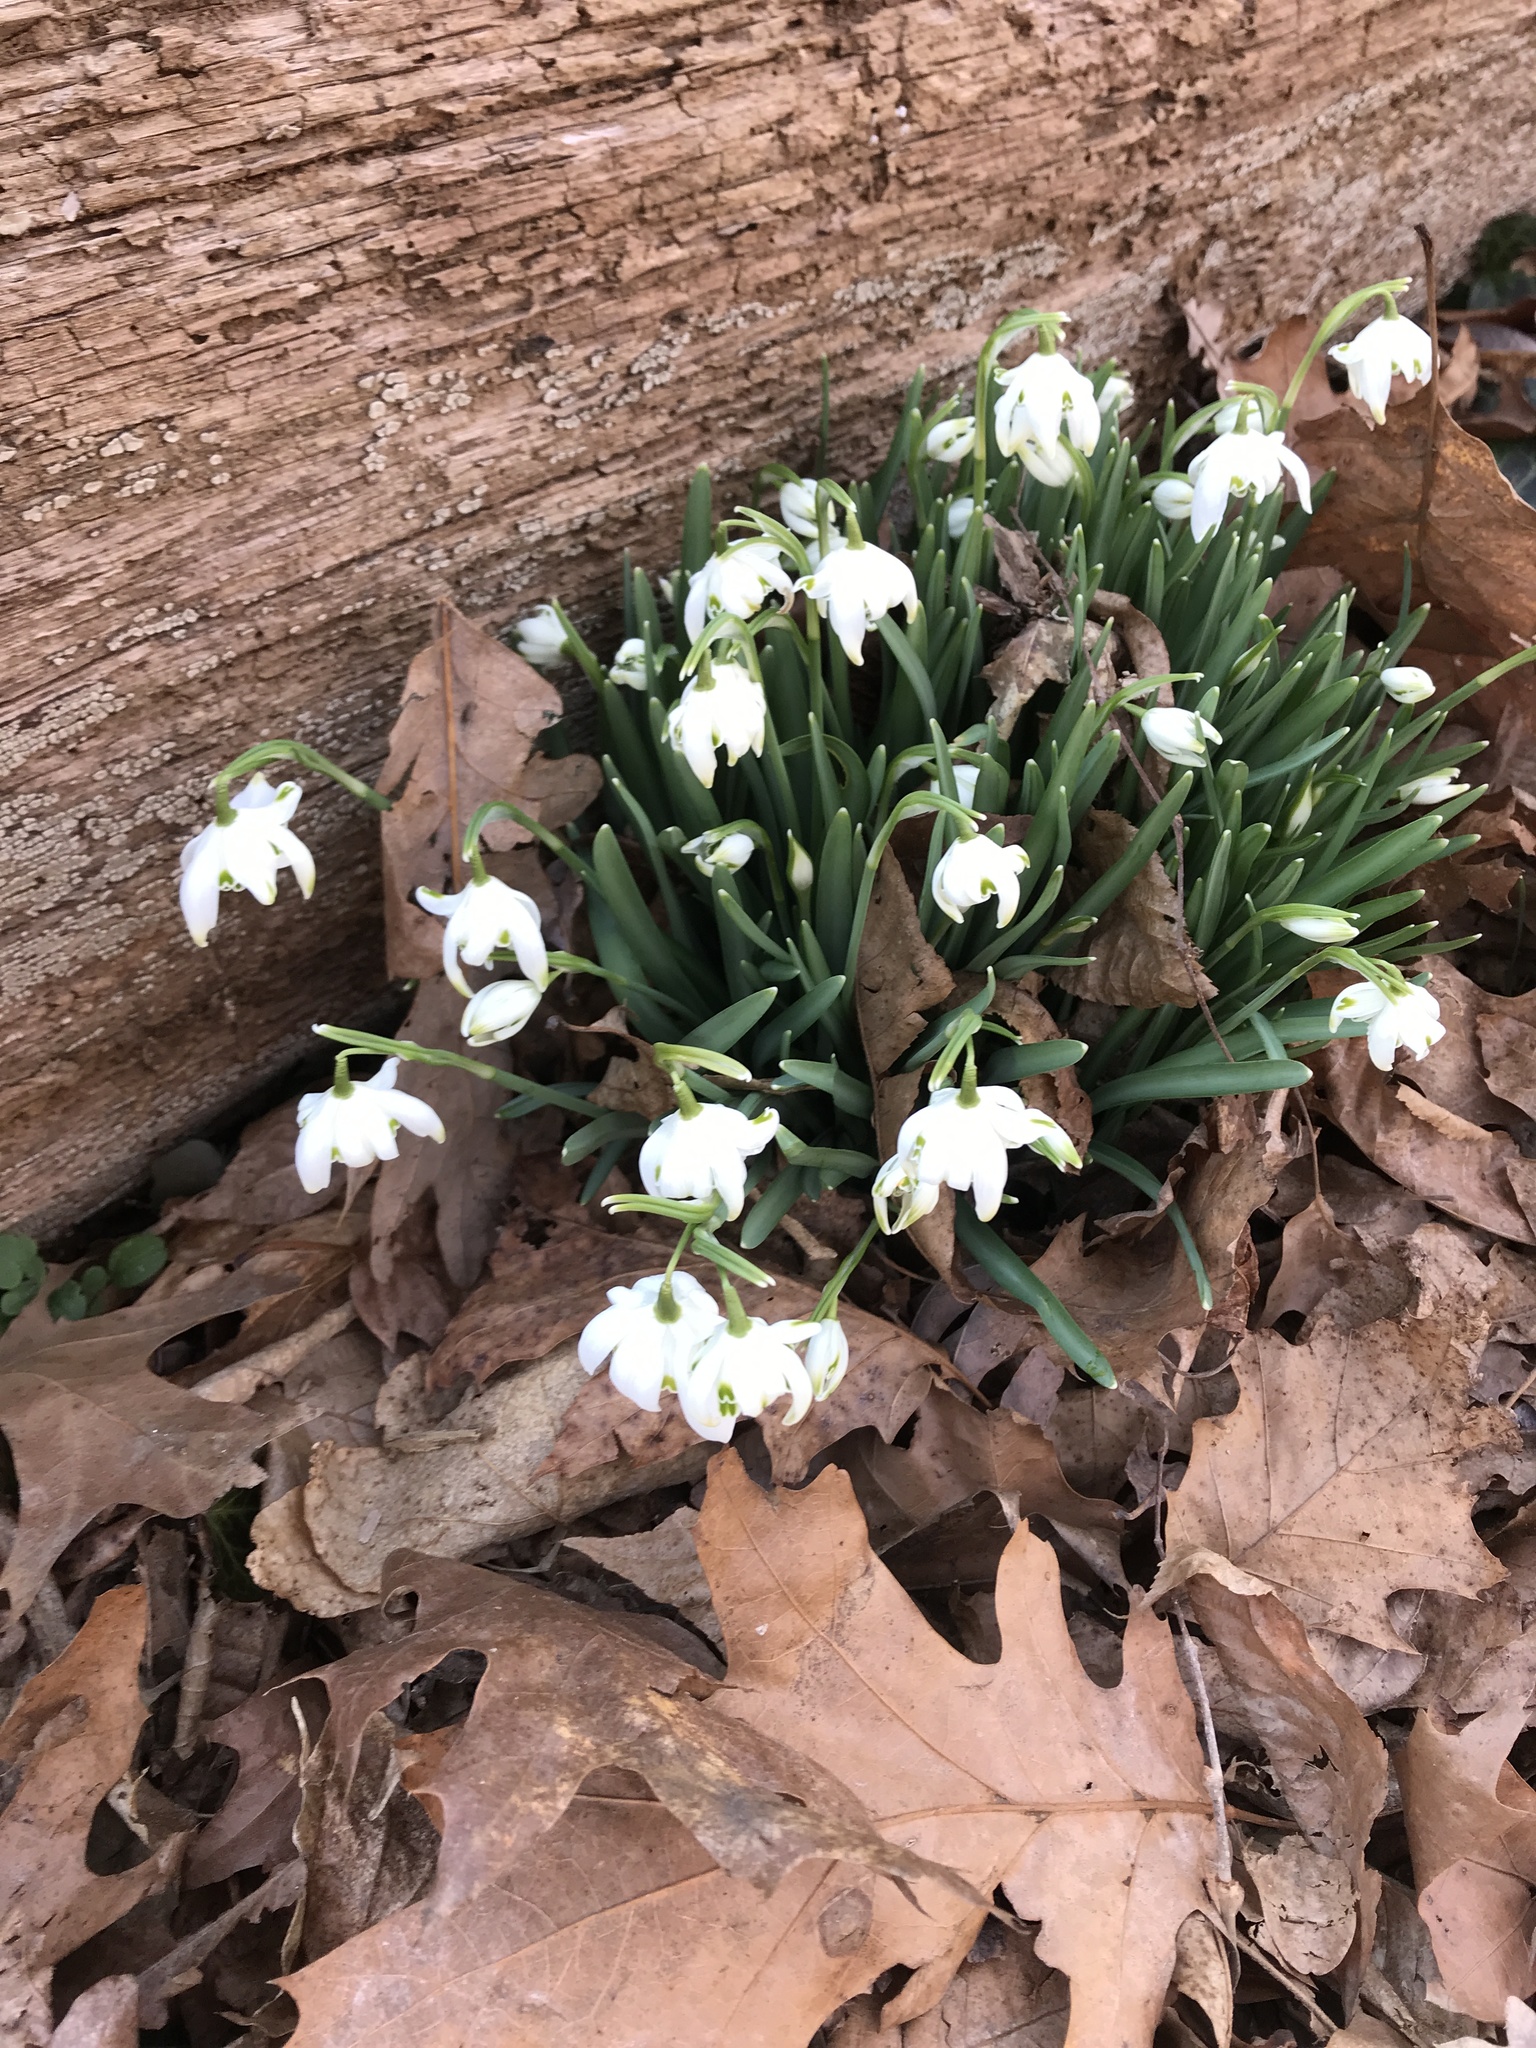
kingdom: Plantae
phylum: Tracheophyta
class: Liliopsida
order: Asparagales
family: Amaryllidaceae
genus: Galanthus
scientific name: Galanthus nivalis
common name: Snowdrop
